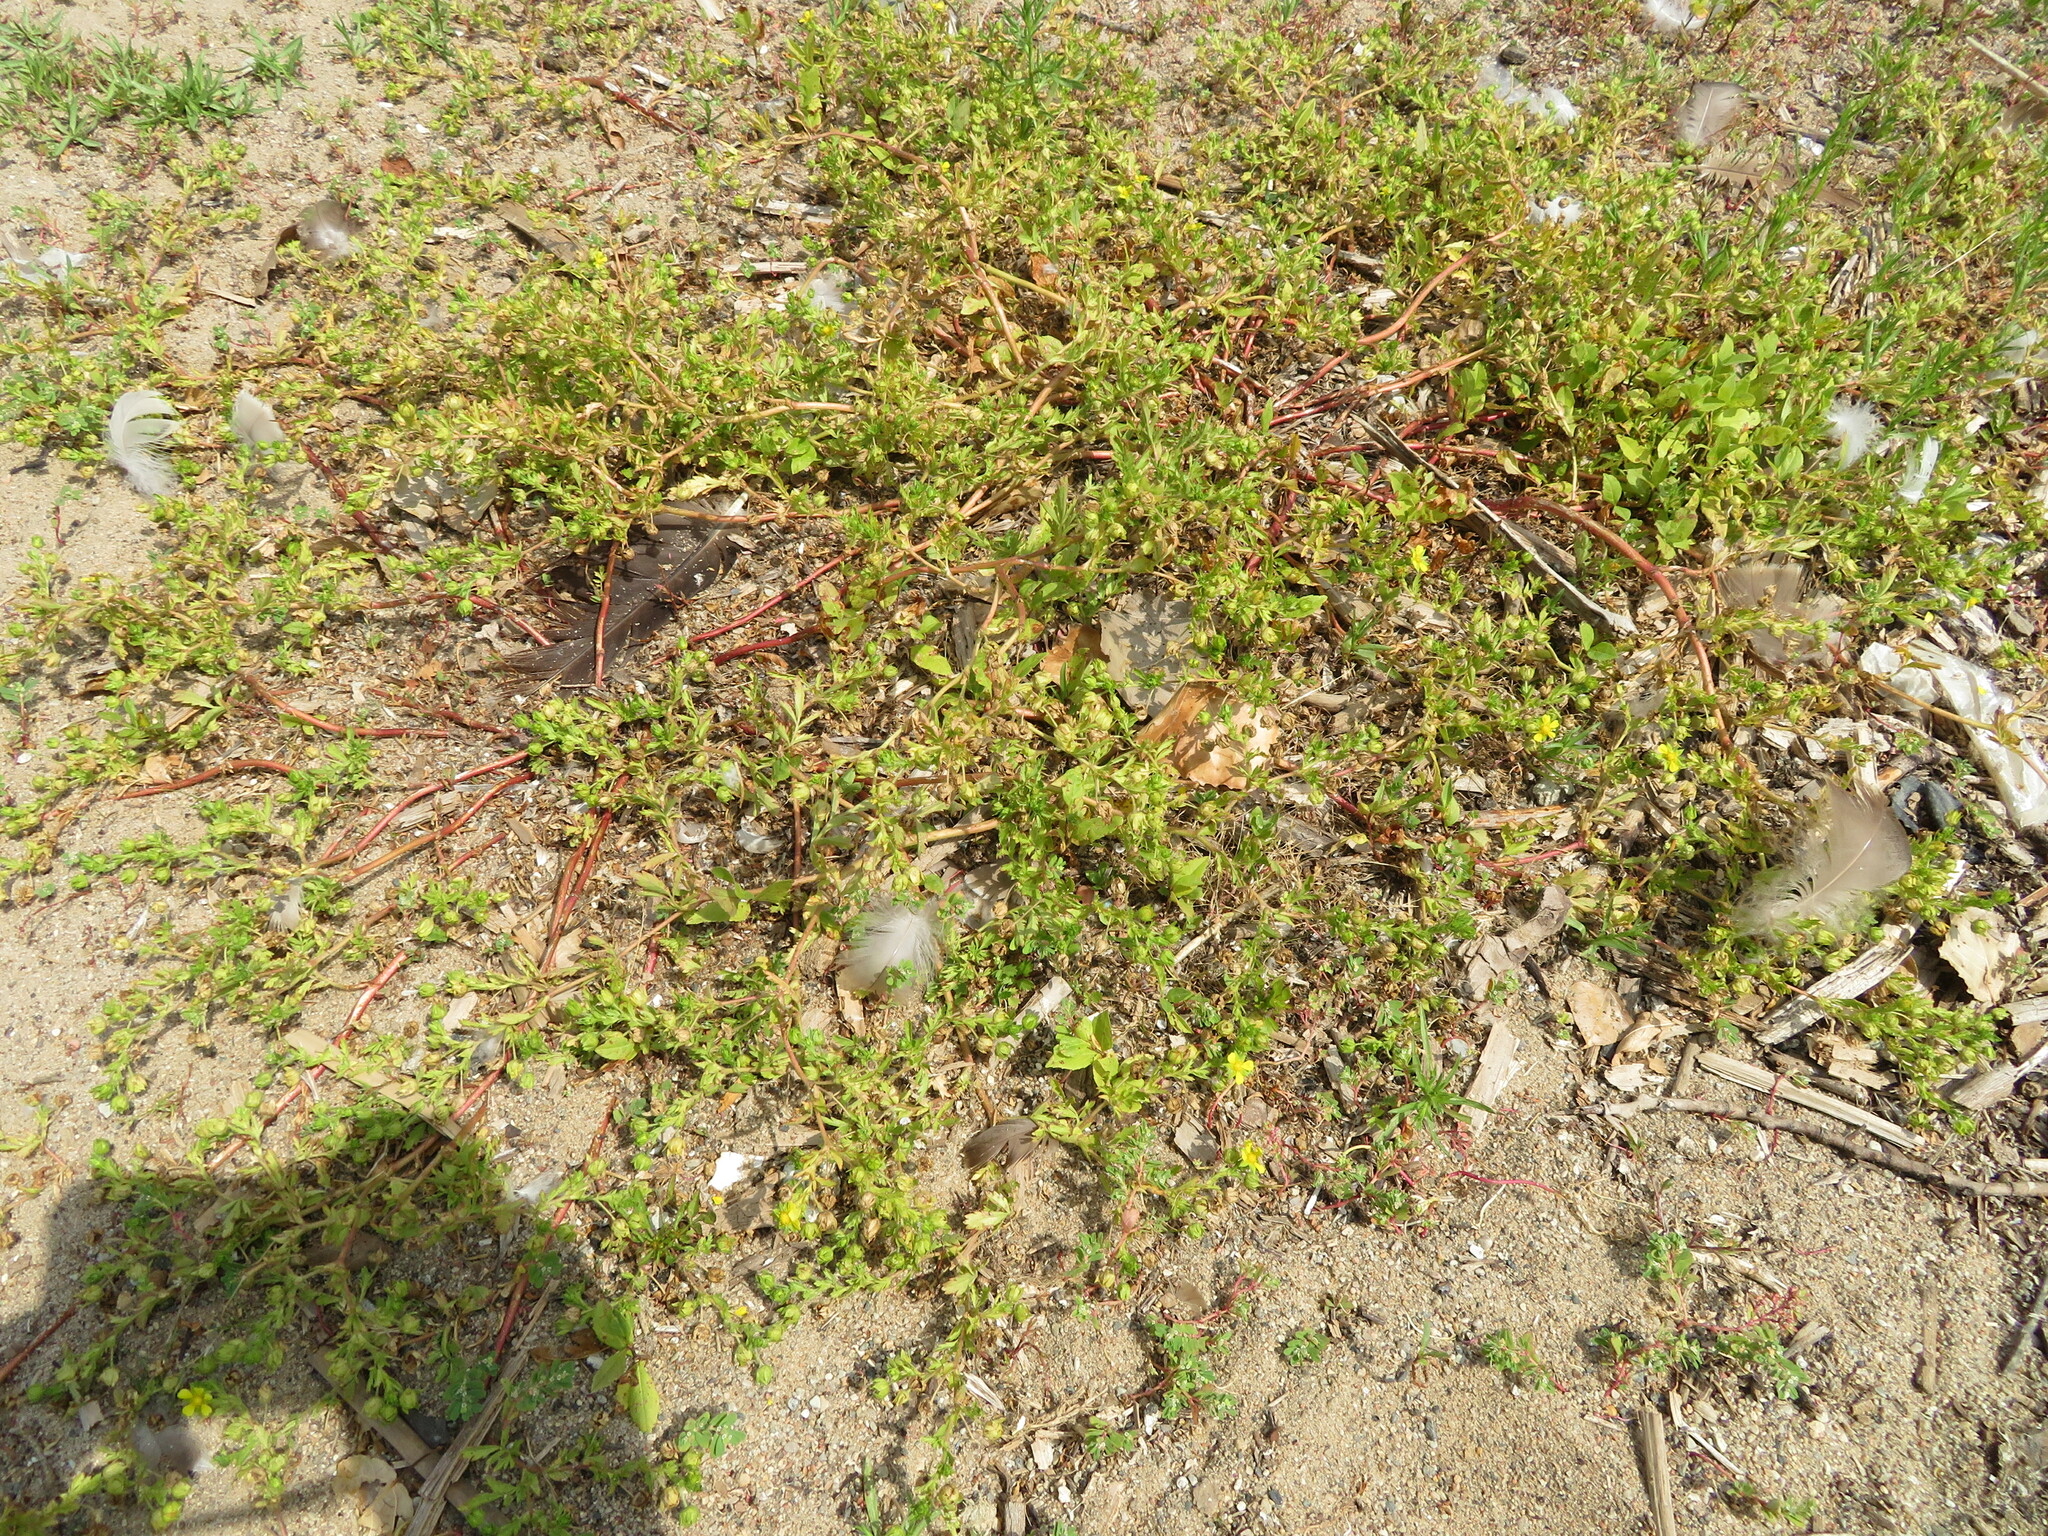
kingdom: Plantae
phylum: Tracheophyta
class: Magnoliopsida
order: Rosales
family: Rosaceae
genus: Potentilla
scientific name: Potentilla supina
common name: Prostrate cinquefoil
